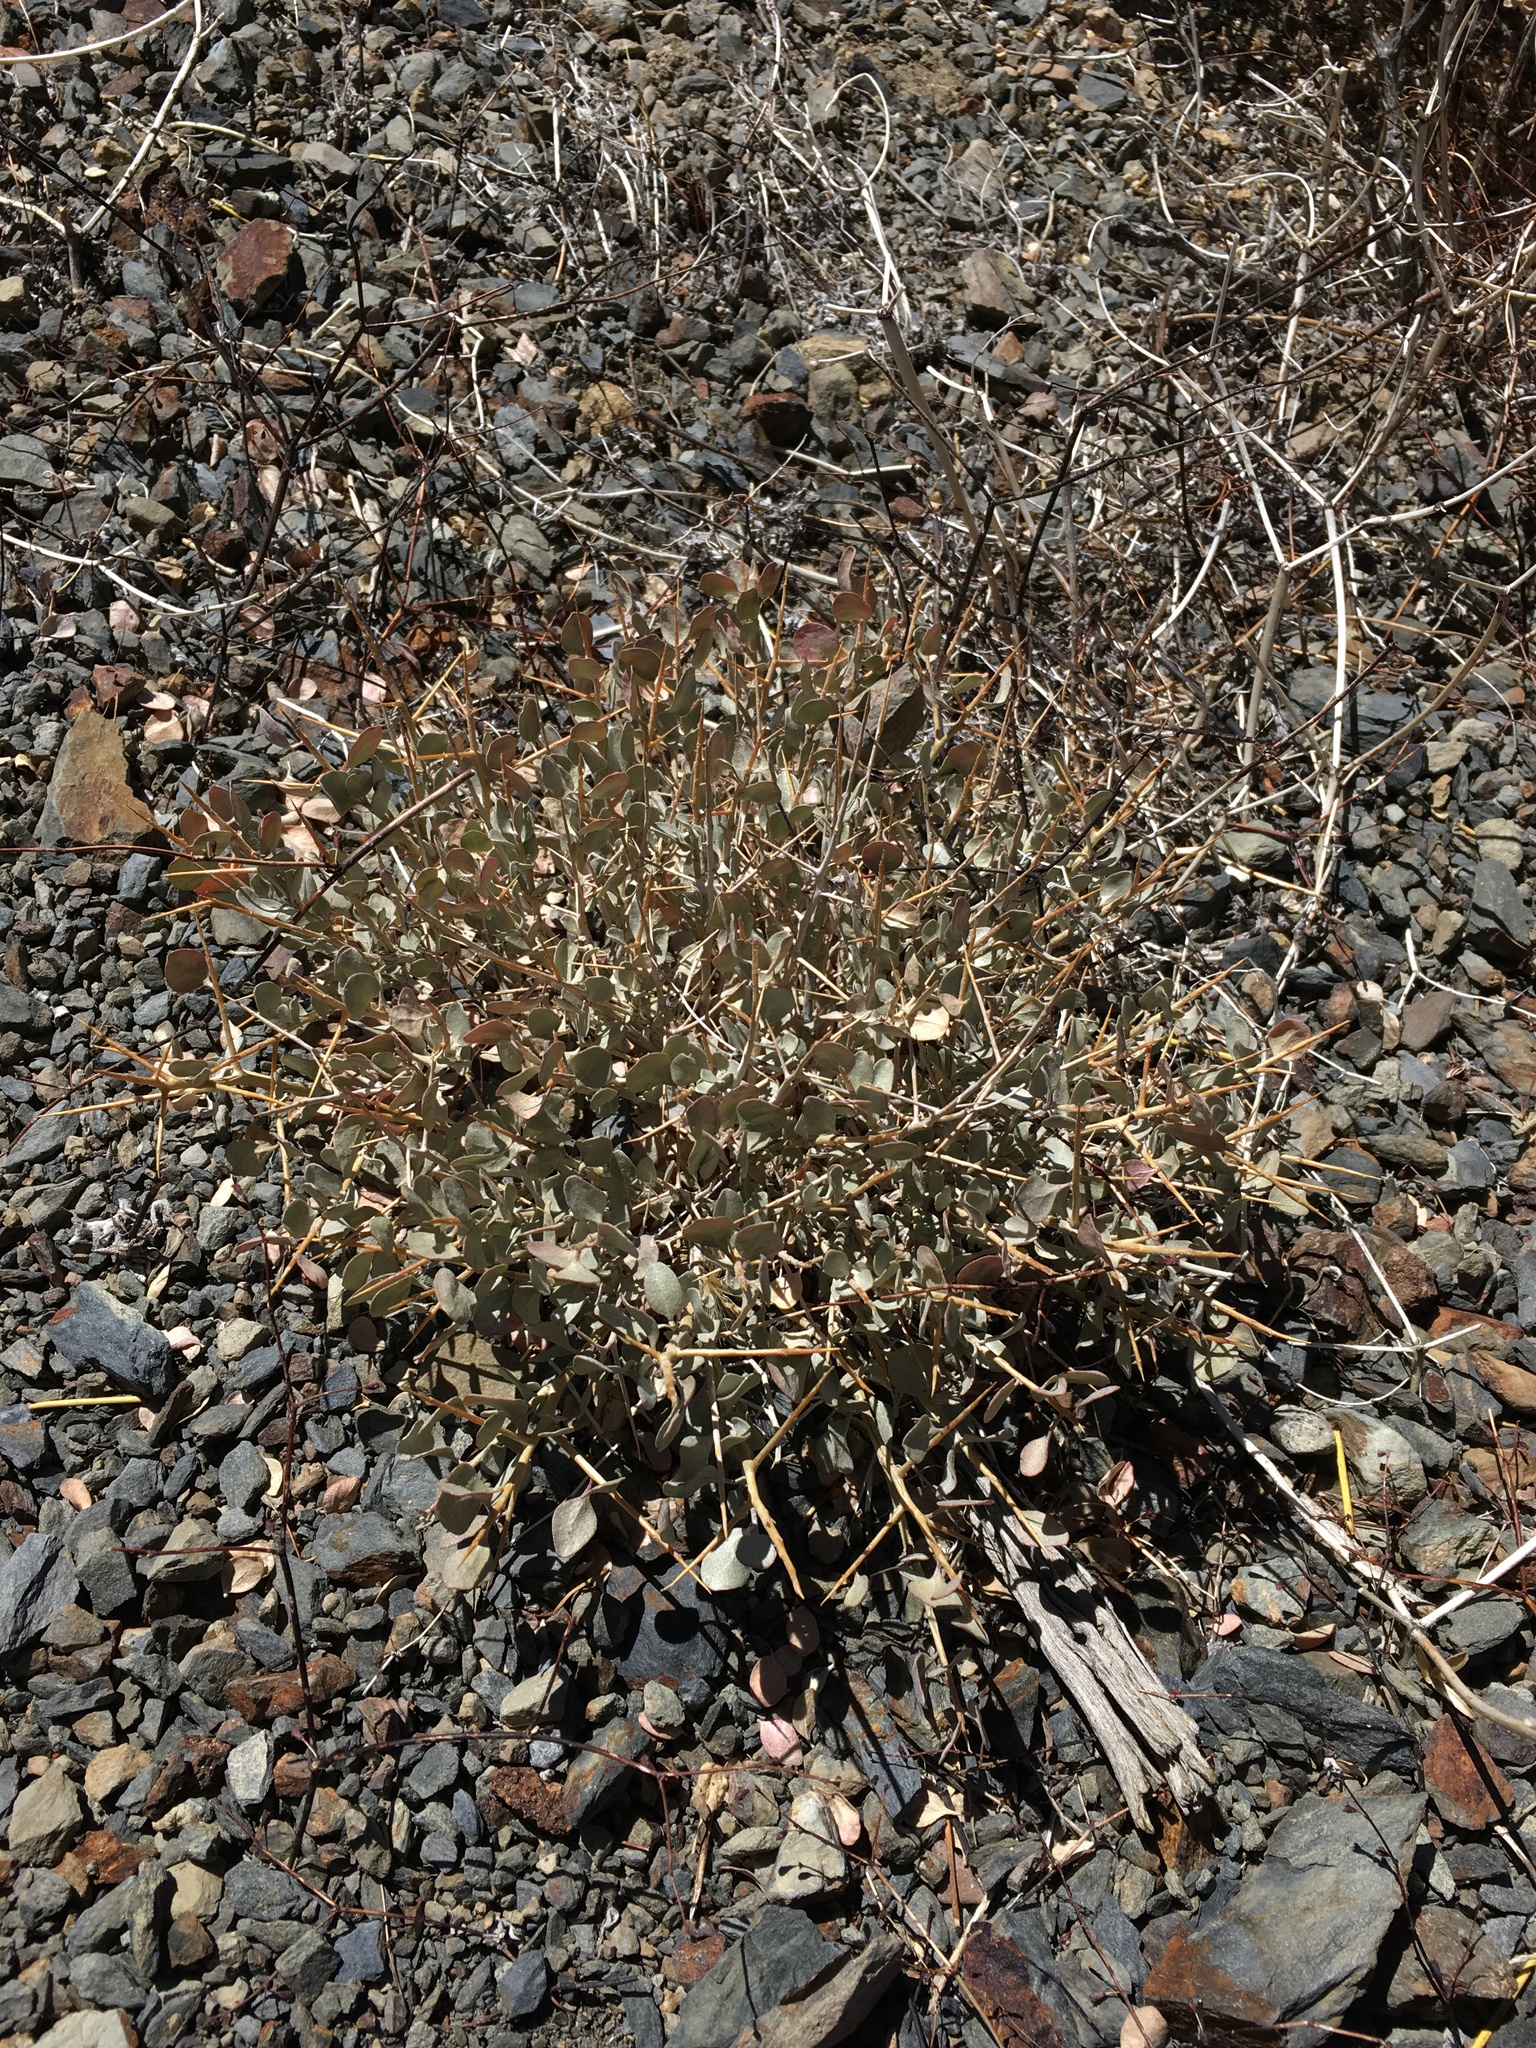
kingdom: Plantae
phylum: Tracheophyta
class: Magnoliopsida
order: Caryophyllales
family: Amaranthaceae
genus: Atriplex
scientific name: Atriplex confertifolia
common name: Shadscale
